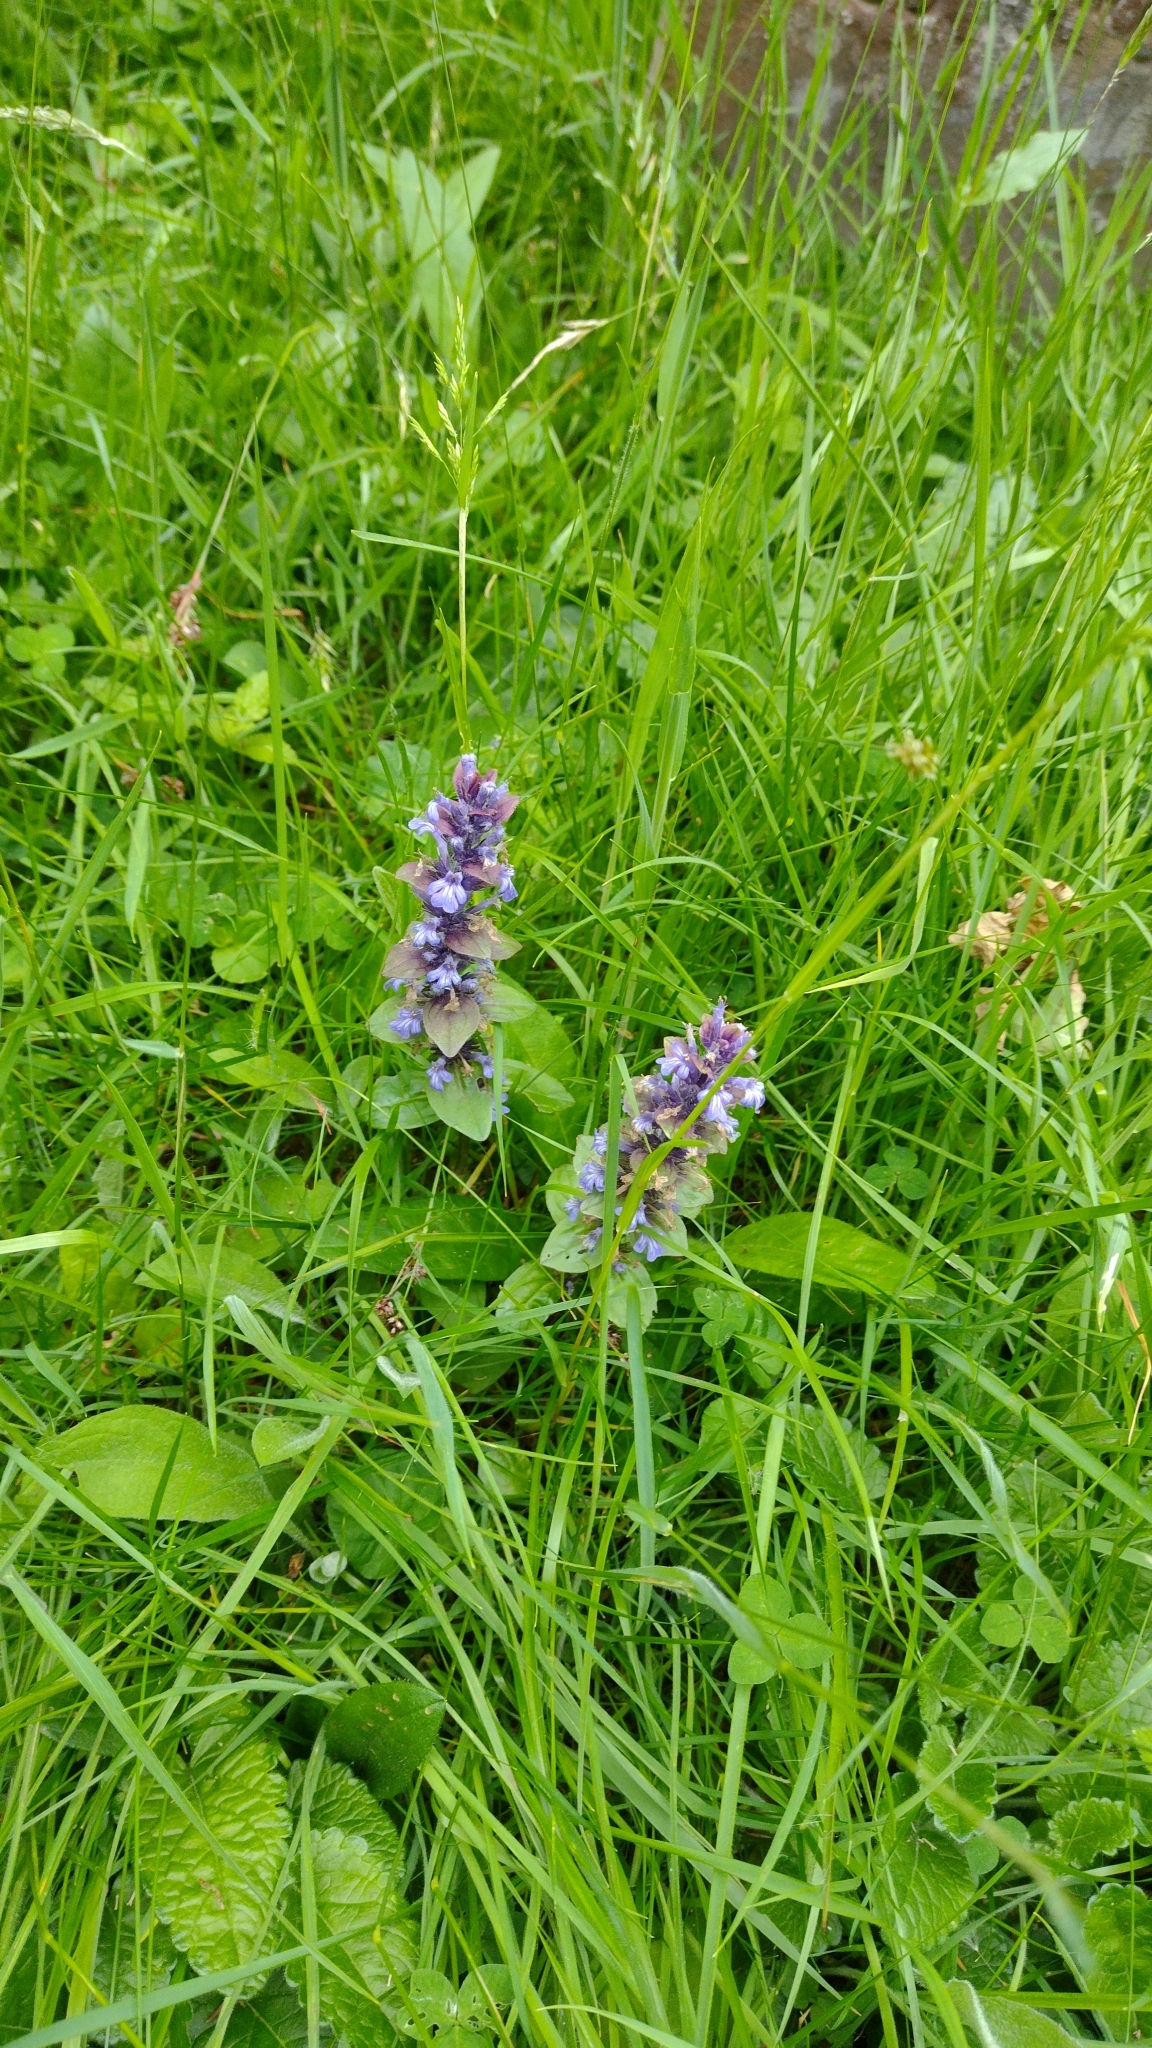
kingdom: Plantae
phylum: Tracheophyta
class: Magnoliopsida
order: Lamiales
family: Lamiaceae
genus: Ajuga
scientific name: Ajuga reptans
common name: Bugle
